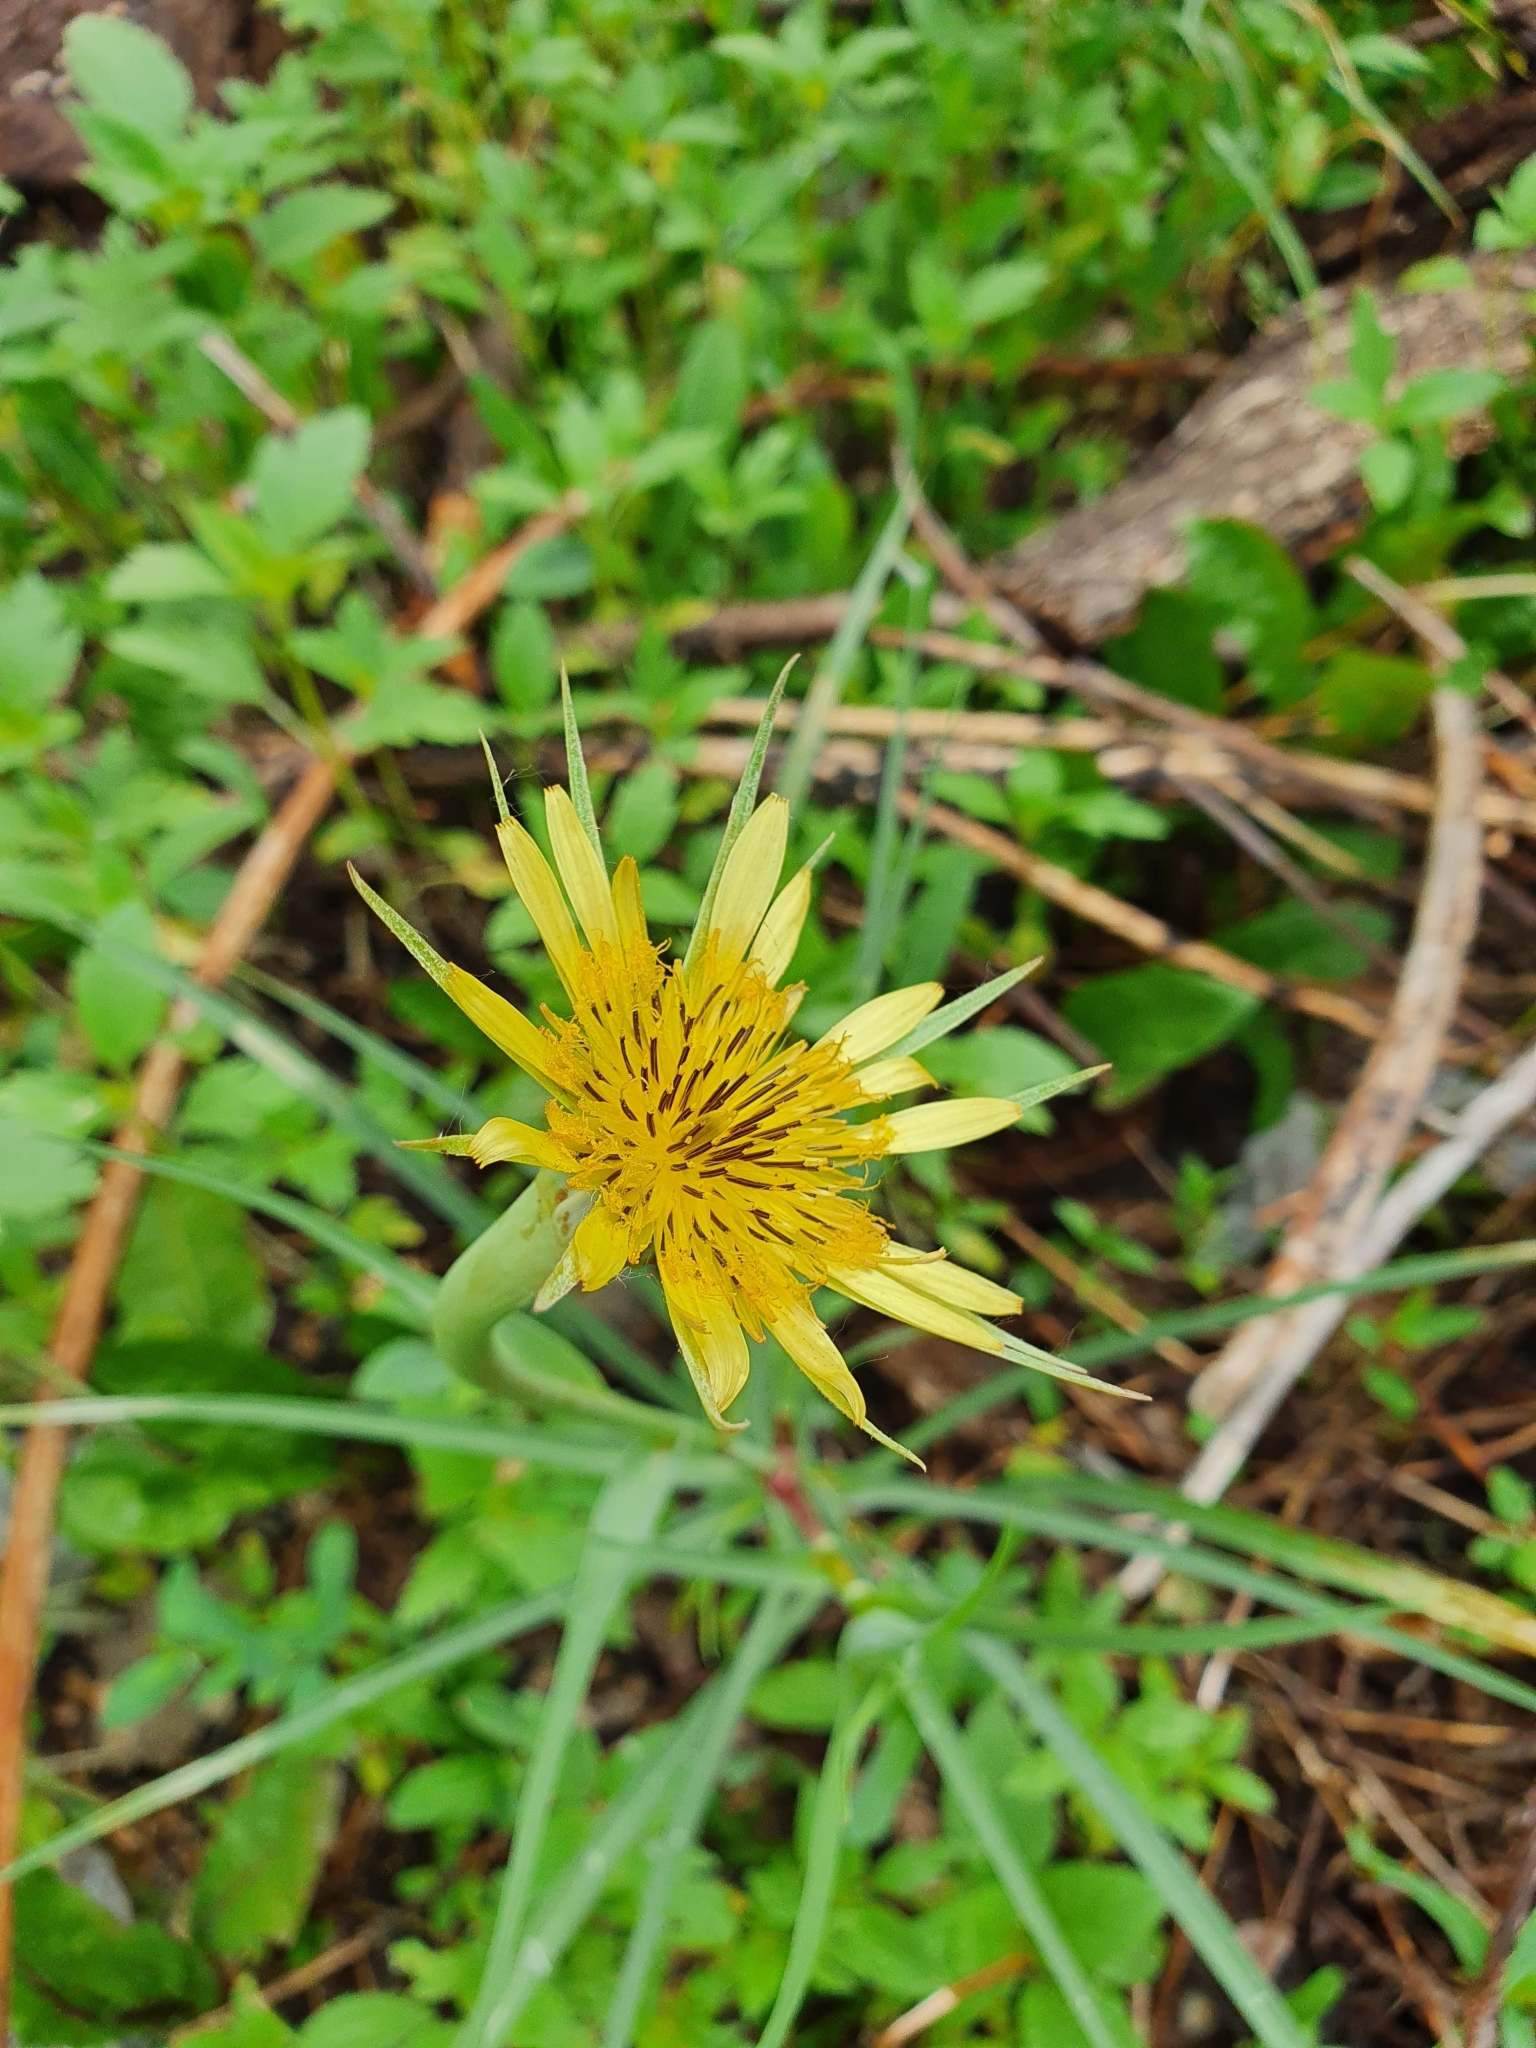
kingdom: Plantae
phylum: Tracheophyta
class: Magnoliopsida
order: Asterales
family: Asteraceae
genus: Tragopogon
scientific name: Tragopogon dubius
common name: Yellow salsify
